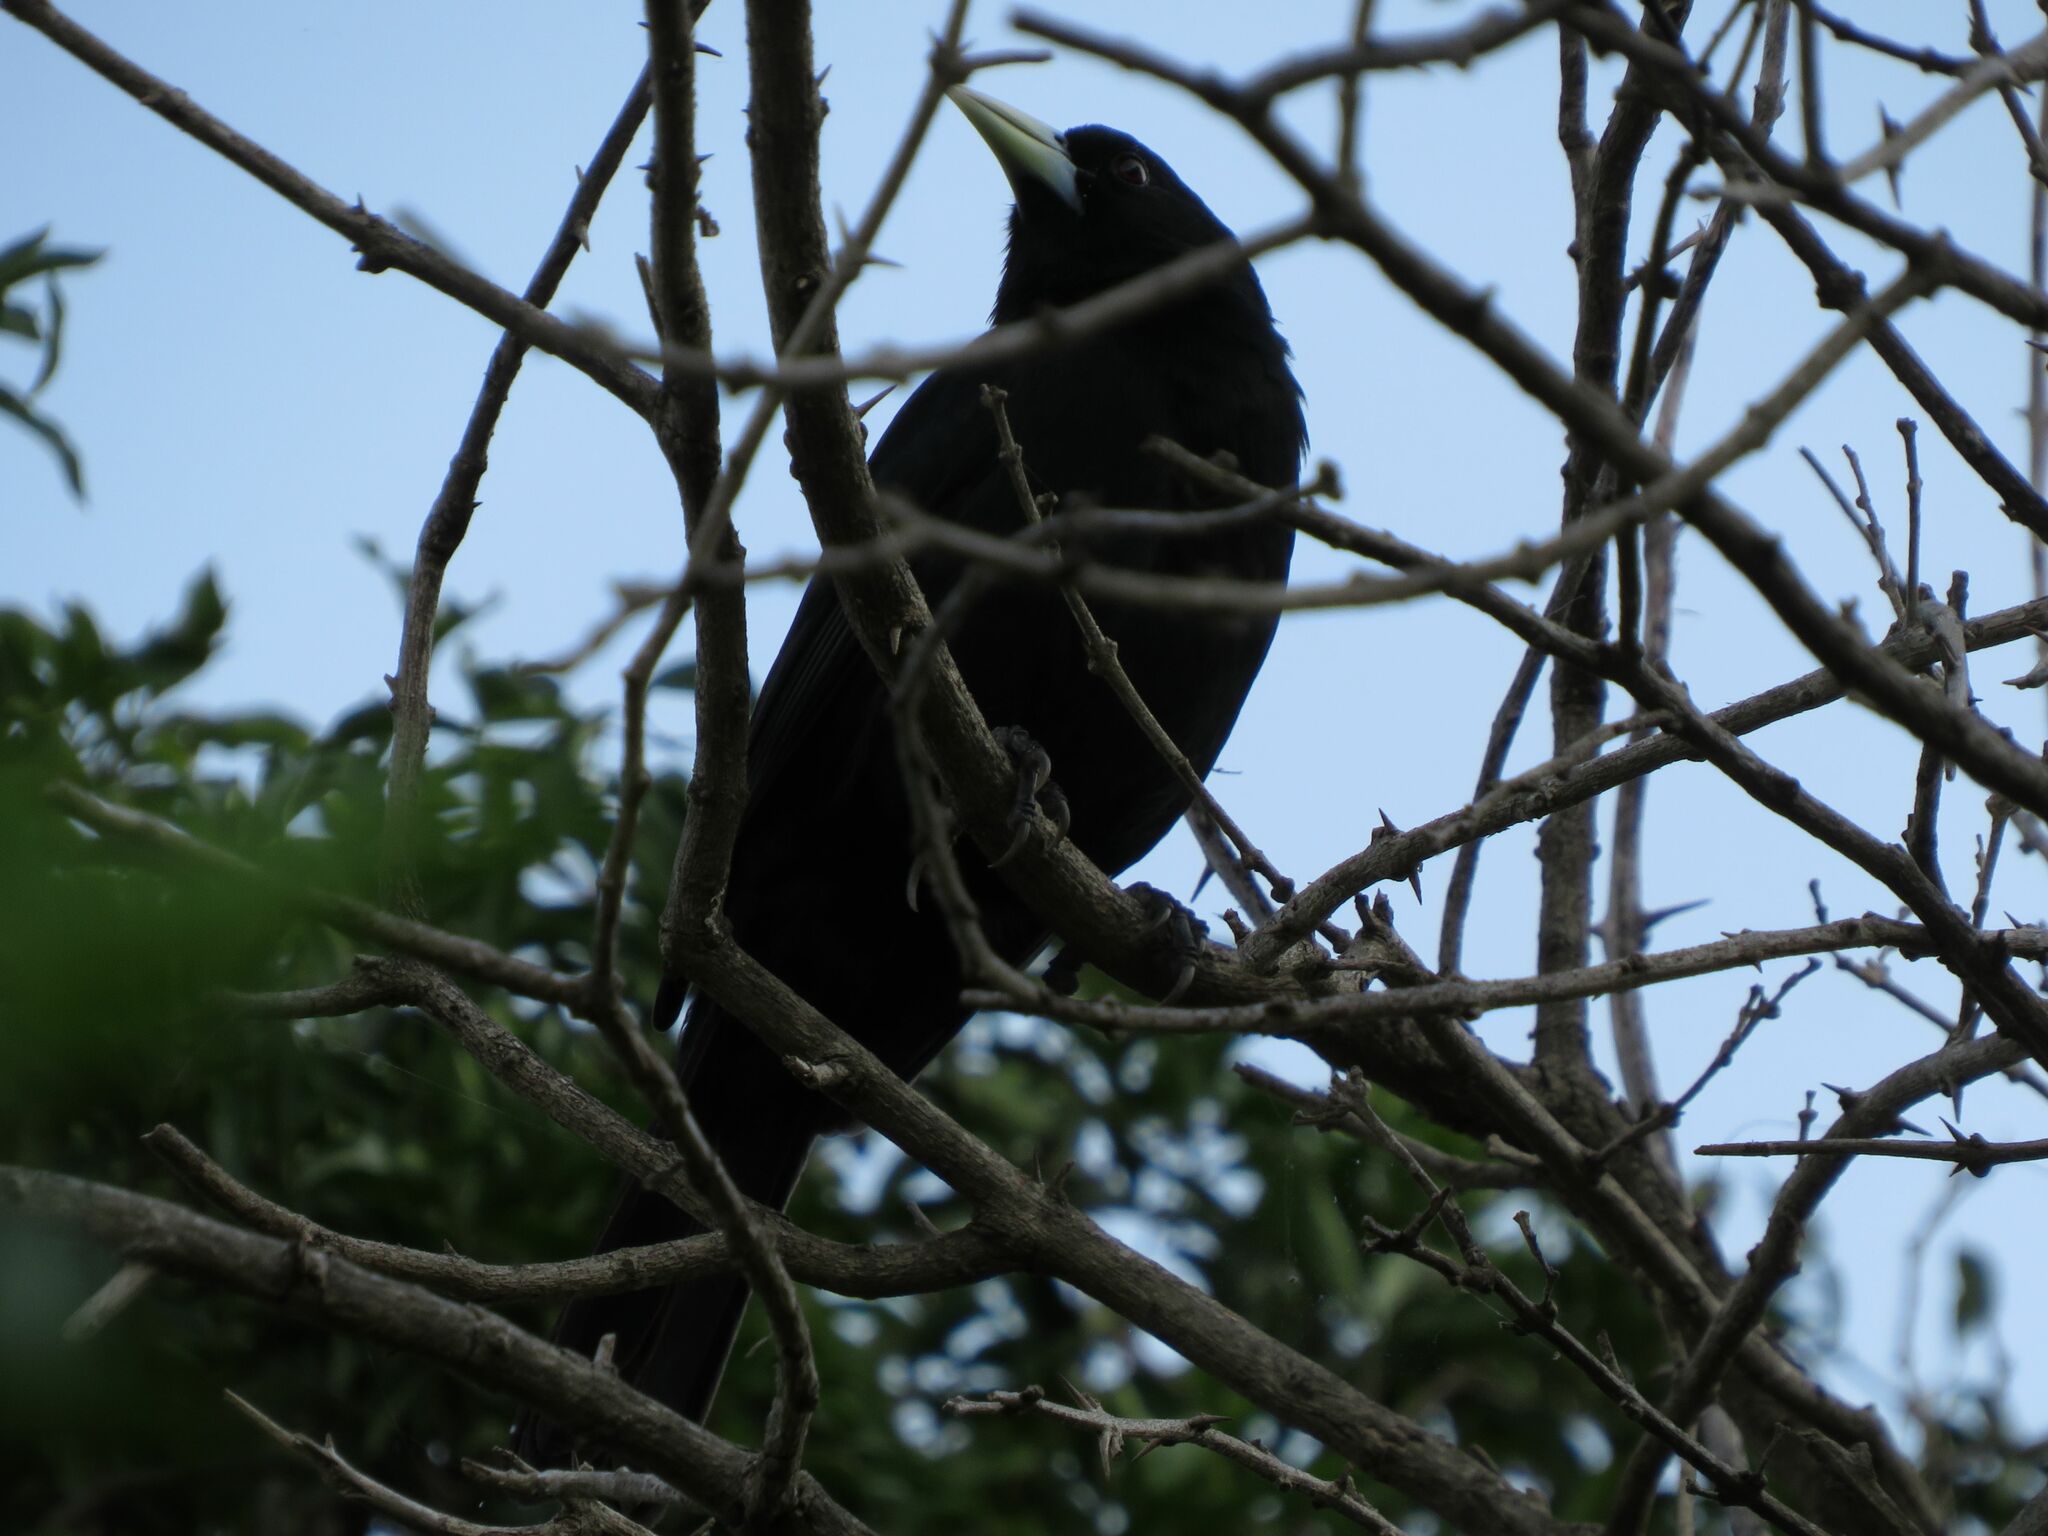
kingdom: Animalia
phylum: Chordata
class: Aves
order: Passeriformes
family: Icteridae
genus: Cacicus
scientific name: Cacicus solitarius
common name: Solitary cacique
